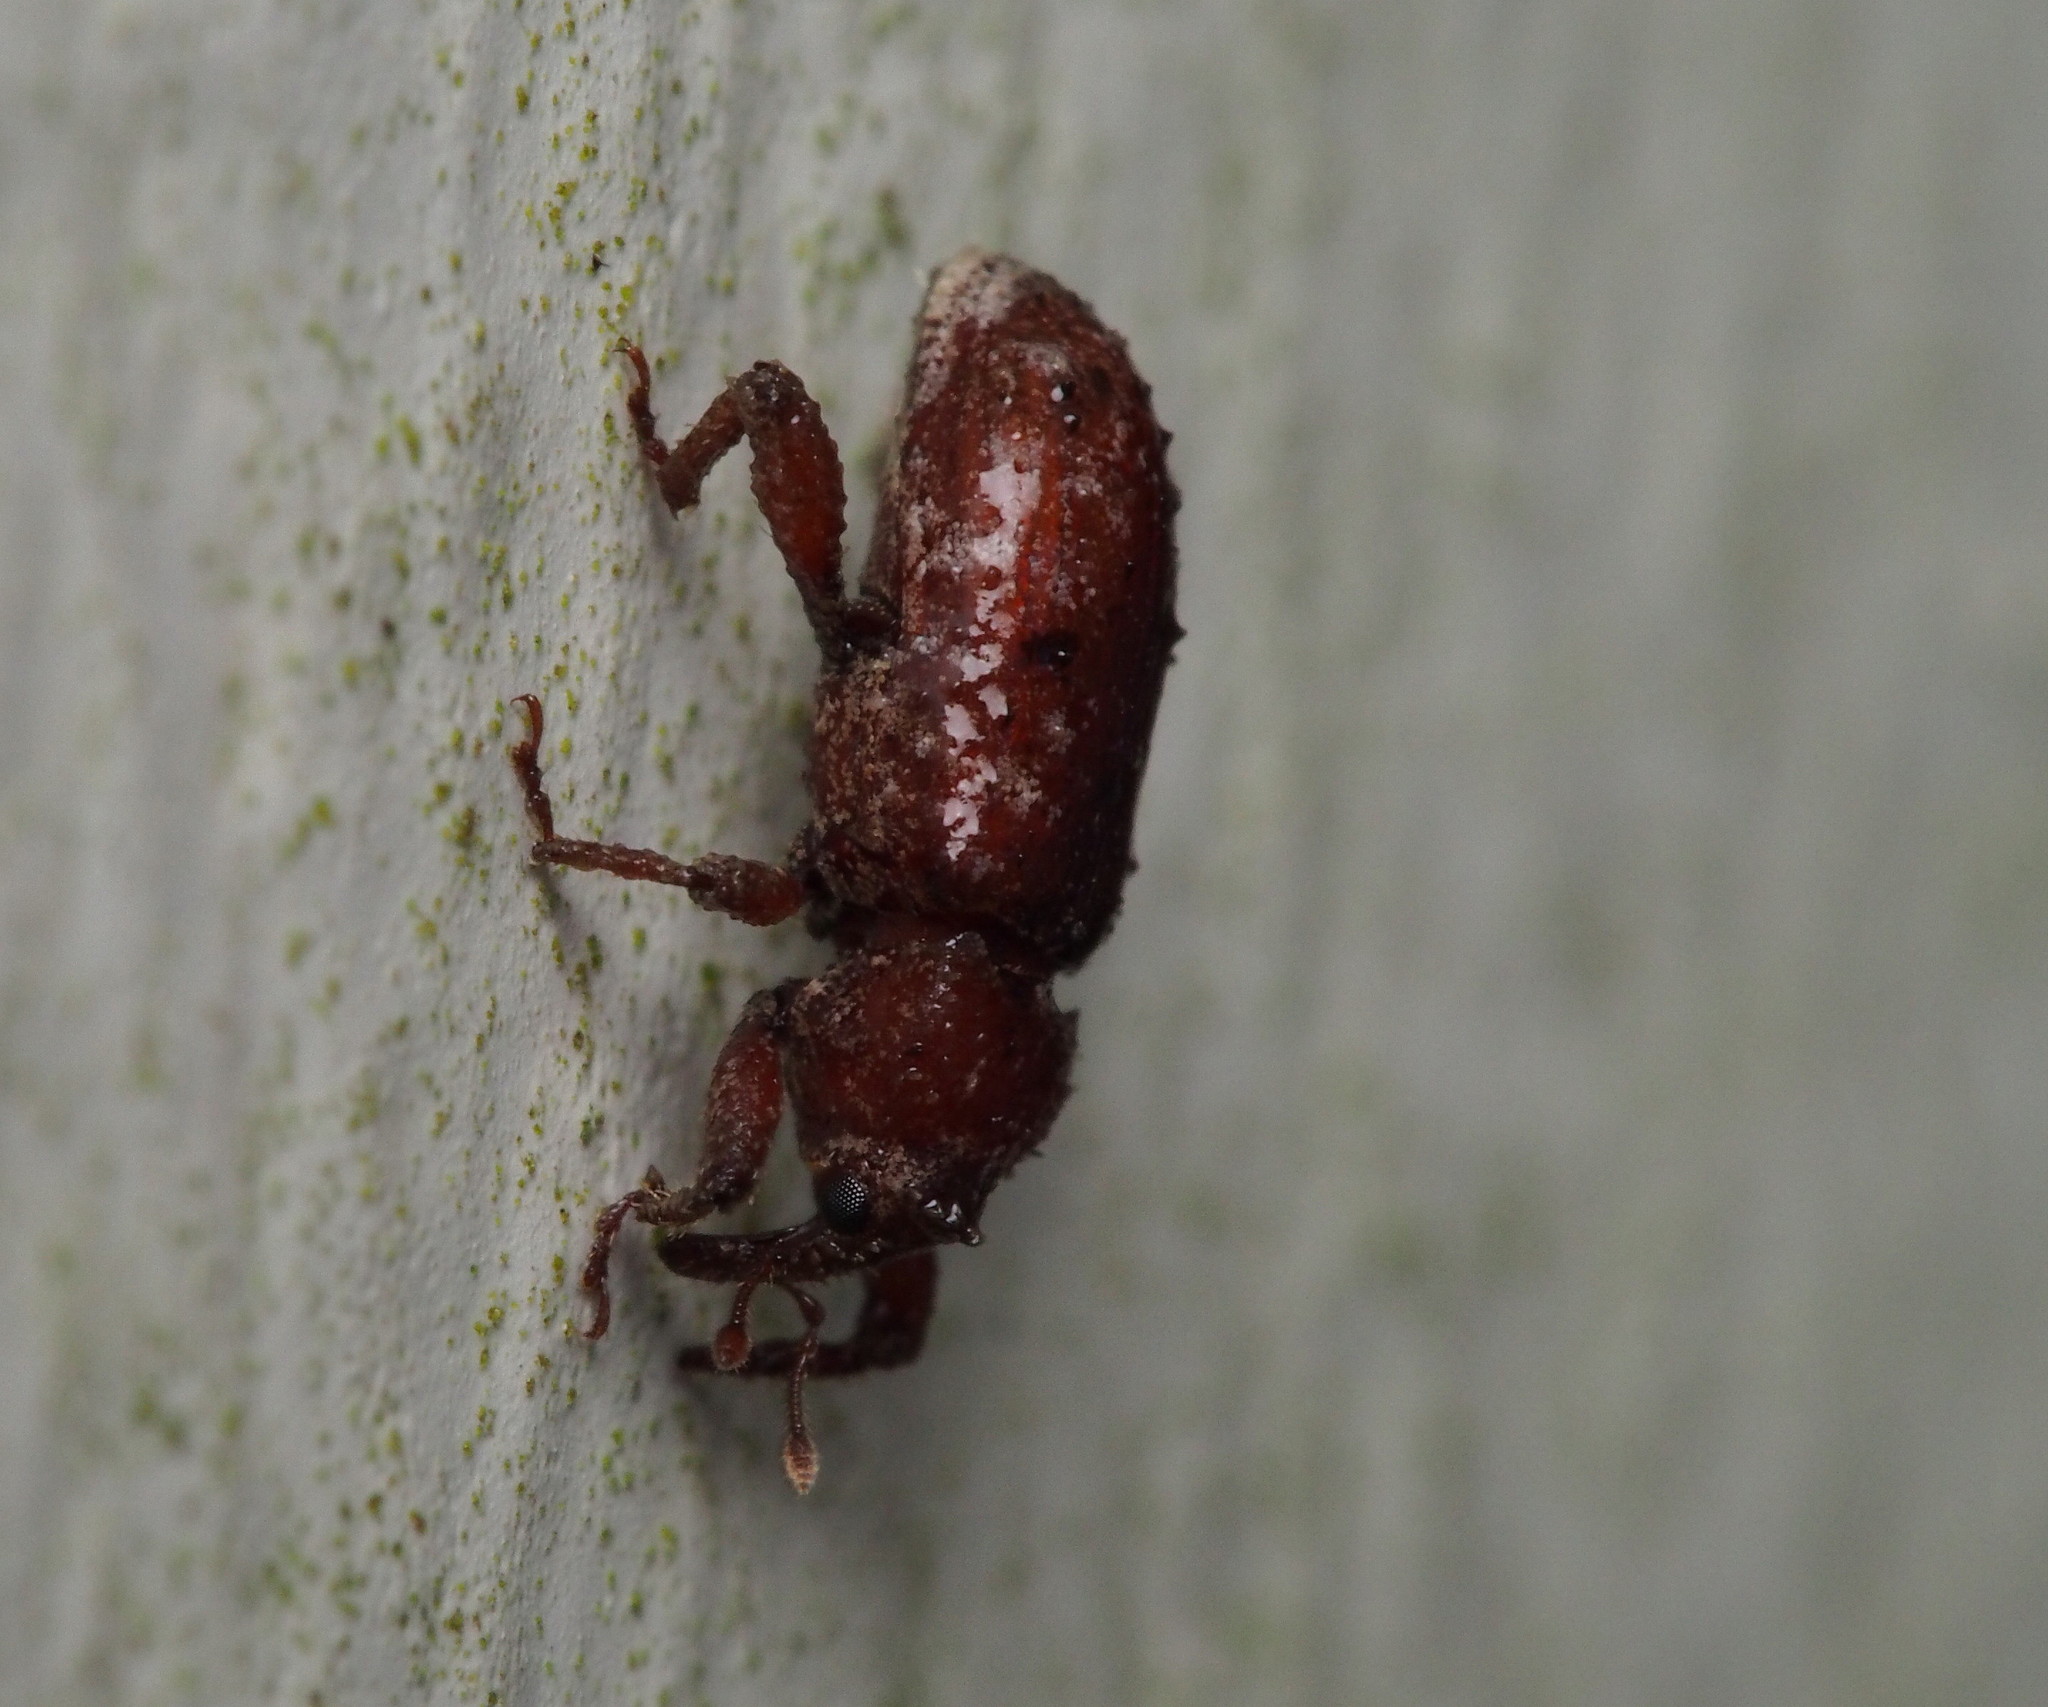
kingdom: Animalia
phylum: Arthropoda
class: Insecta
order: Coleoptera
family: Curculionidae
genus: Mitrastethus
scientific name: Mitrastethus baridioides
